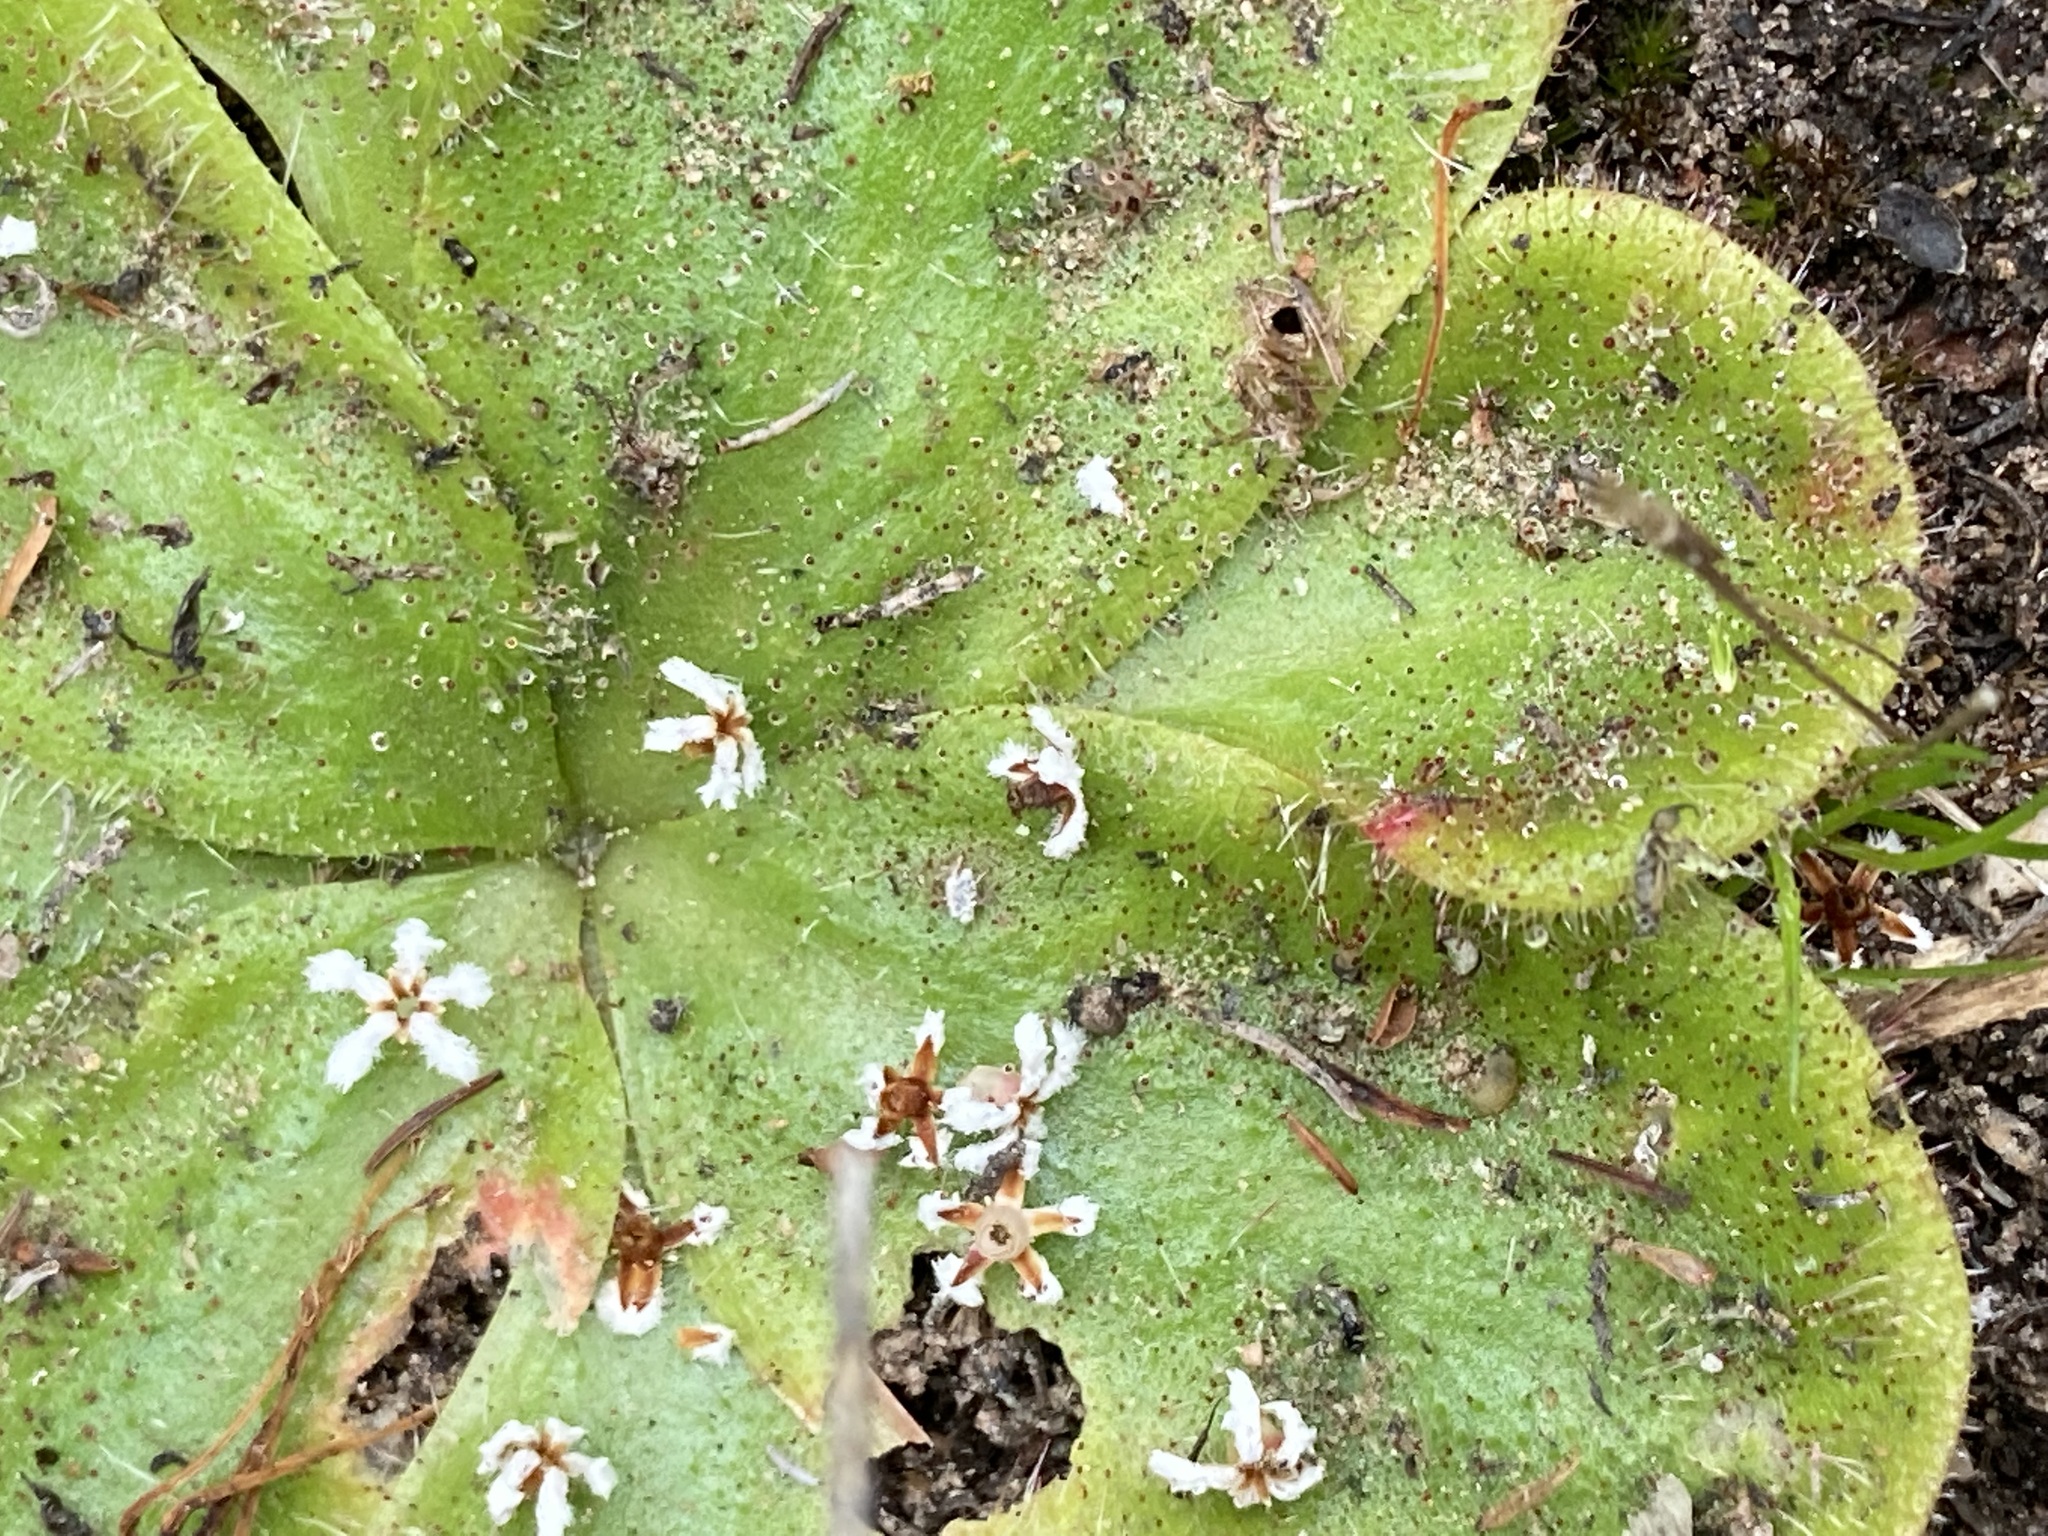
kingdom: Plantae
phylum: Tracheophyta
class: Magnoliopsida
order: Caryophyllales
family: Droseraceae
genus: Drosera
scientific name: Drosera erythrorhiza
